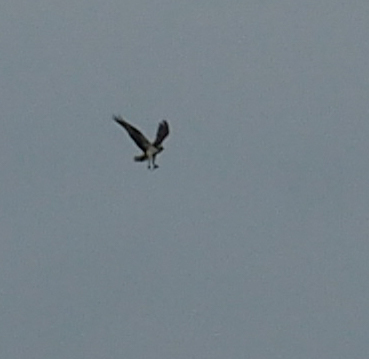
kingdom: Animalia
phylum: Chordata
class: Aves
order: Accipitriformes
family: Pandionidae
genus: Pandion
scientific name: Pandion haliaetus
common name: Osprey
